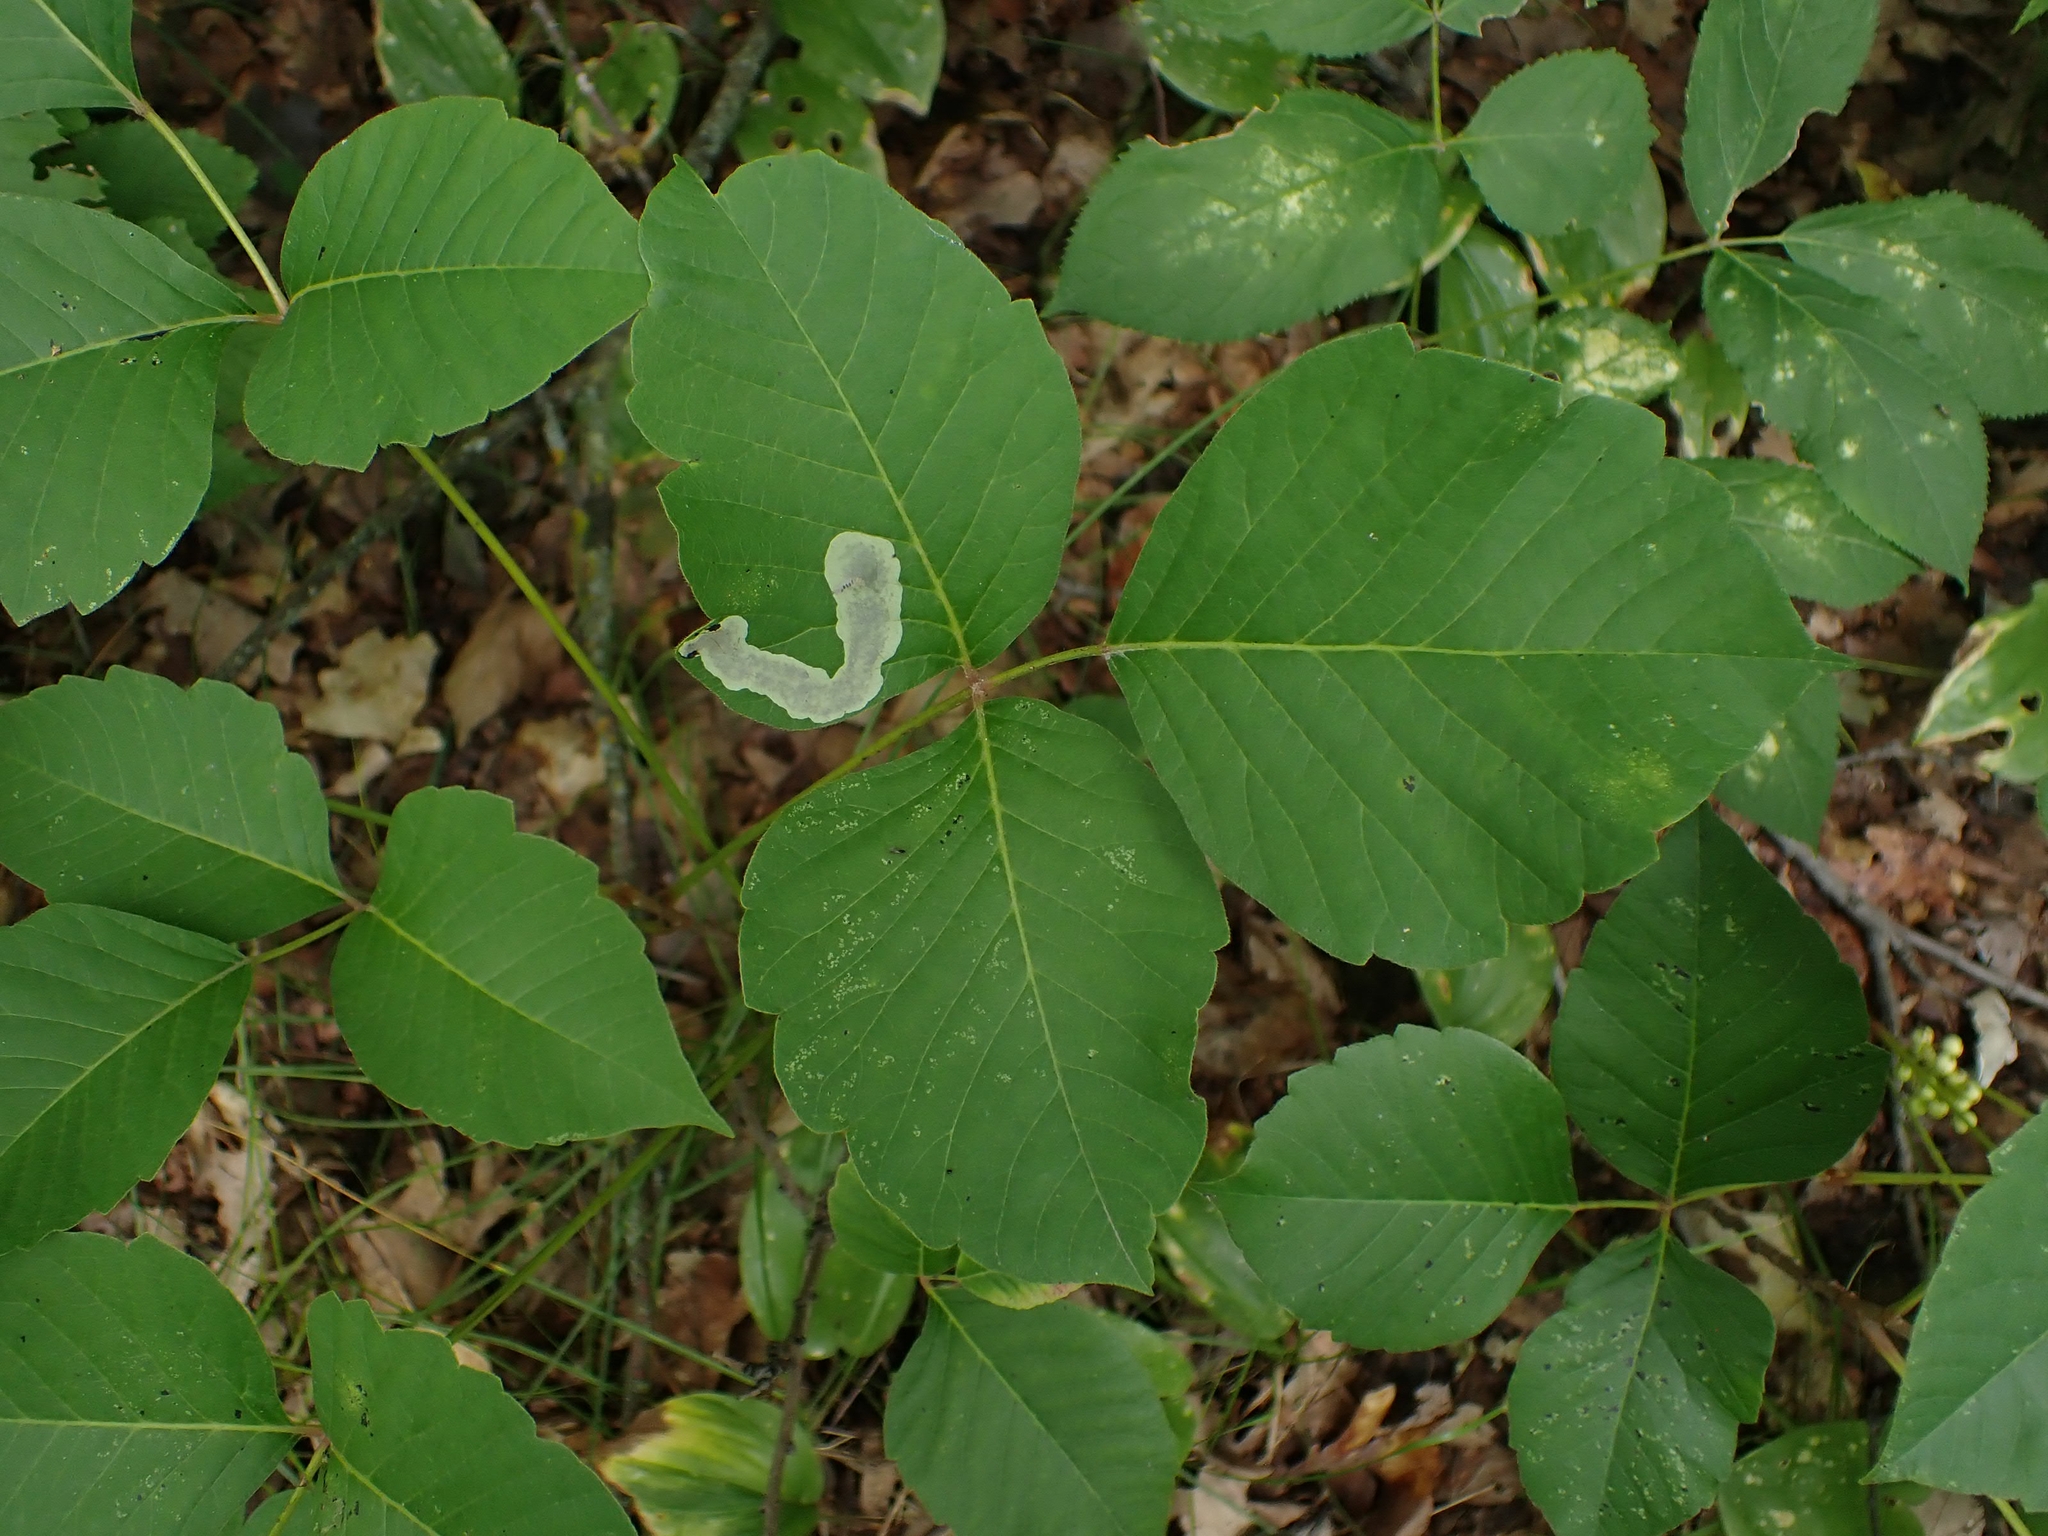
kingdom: Animalia
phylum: Arthropoda
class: Insecta
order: Lepidoptera
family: Gracillariidae
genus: Cameraria
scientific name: Cameraria guttifinitella
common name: Poison ivy leaf-miner moth
